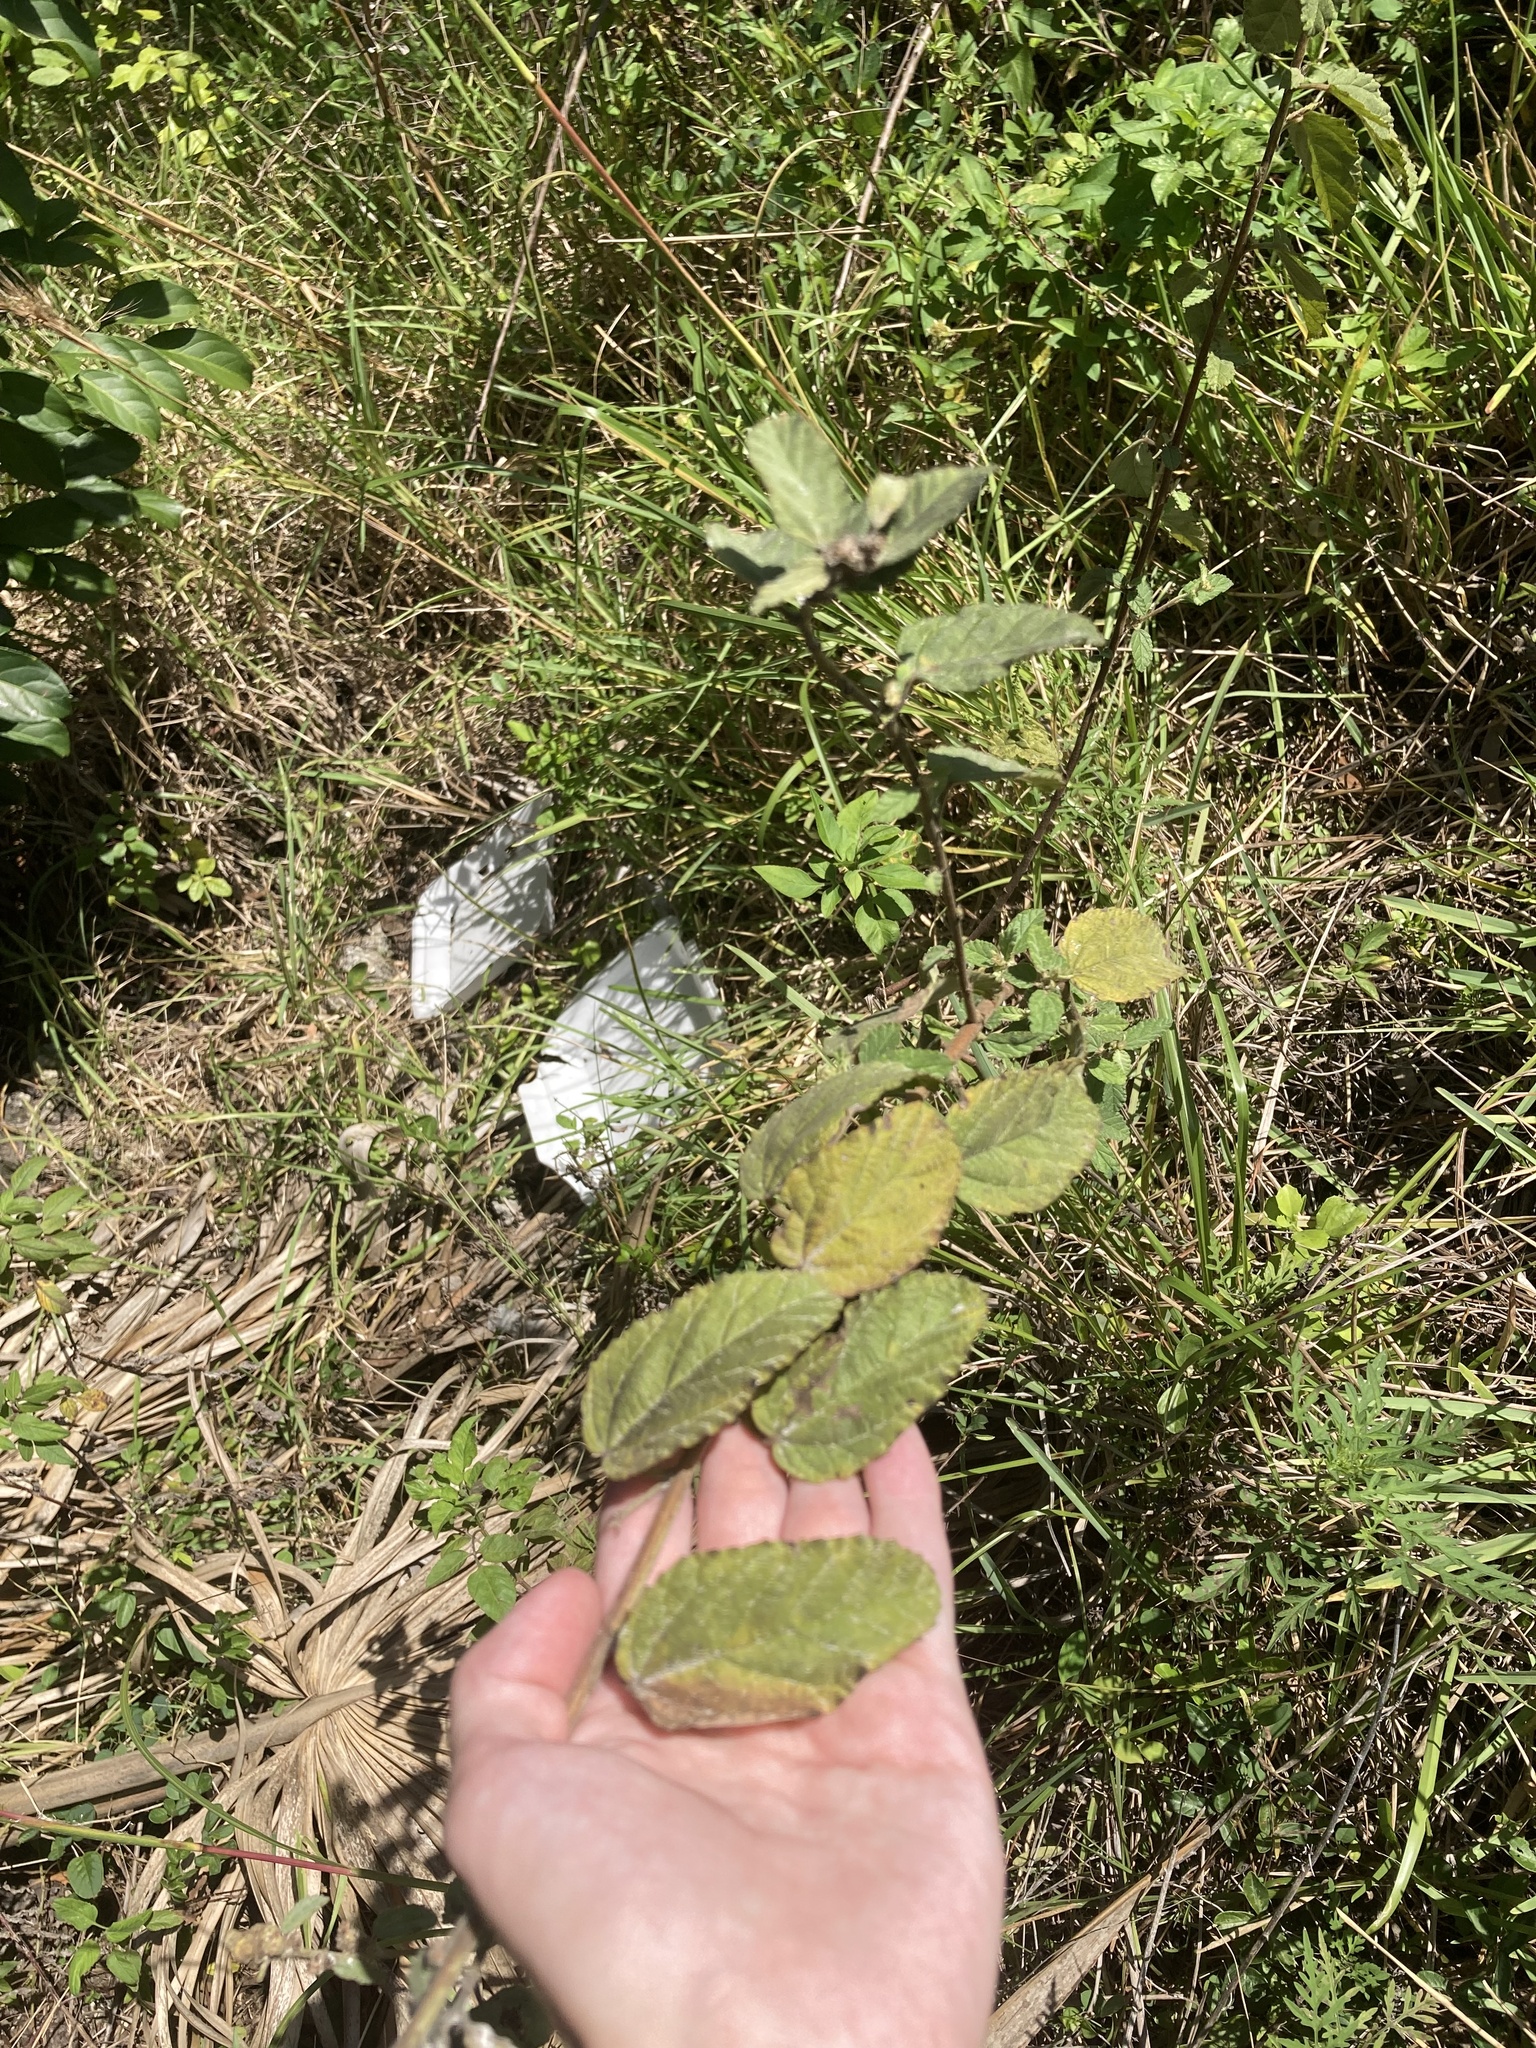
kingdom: Plantae
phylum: Tracheophyta
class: Magnoliopsida
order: Malvales
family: Malvaceae
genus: Waltheria
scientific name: Waltheria indica
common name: Leather-coat
